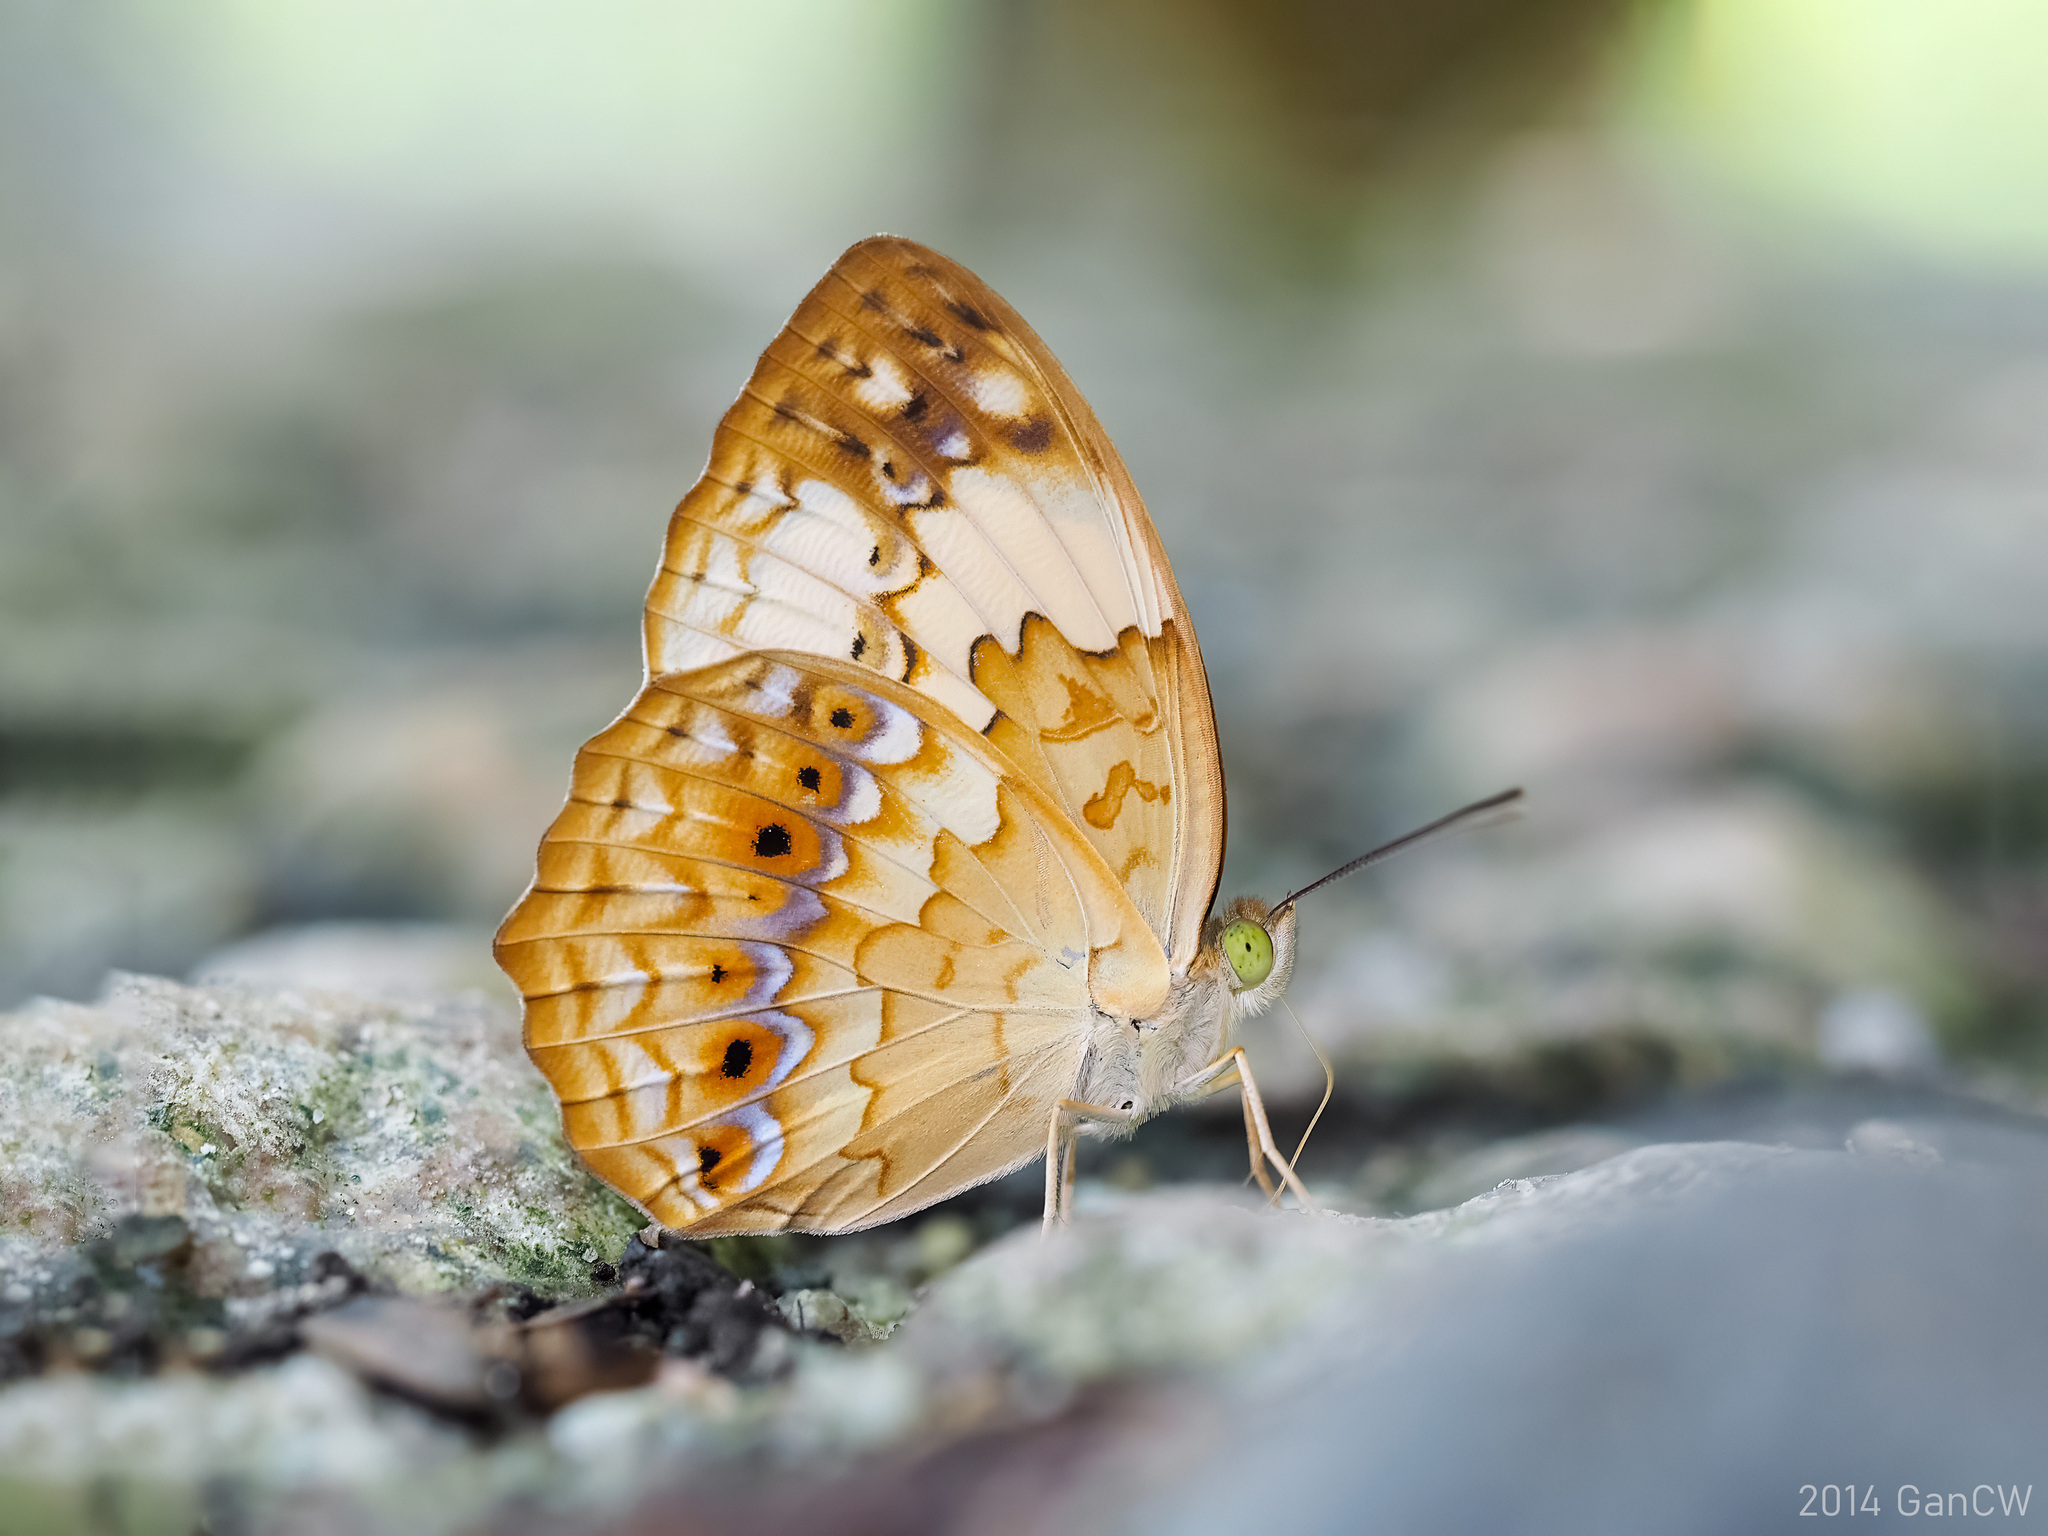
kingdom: Animalia
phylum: Arthropoda
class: Insecta
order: Lepidoptera
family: Nymphalidae
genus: Cupha
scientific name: Cupha erymanthis
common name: Rustic
